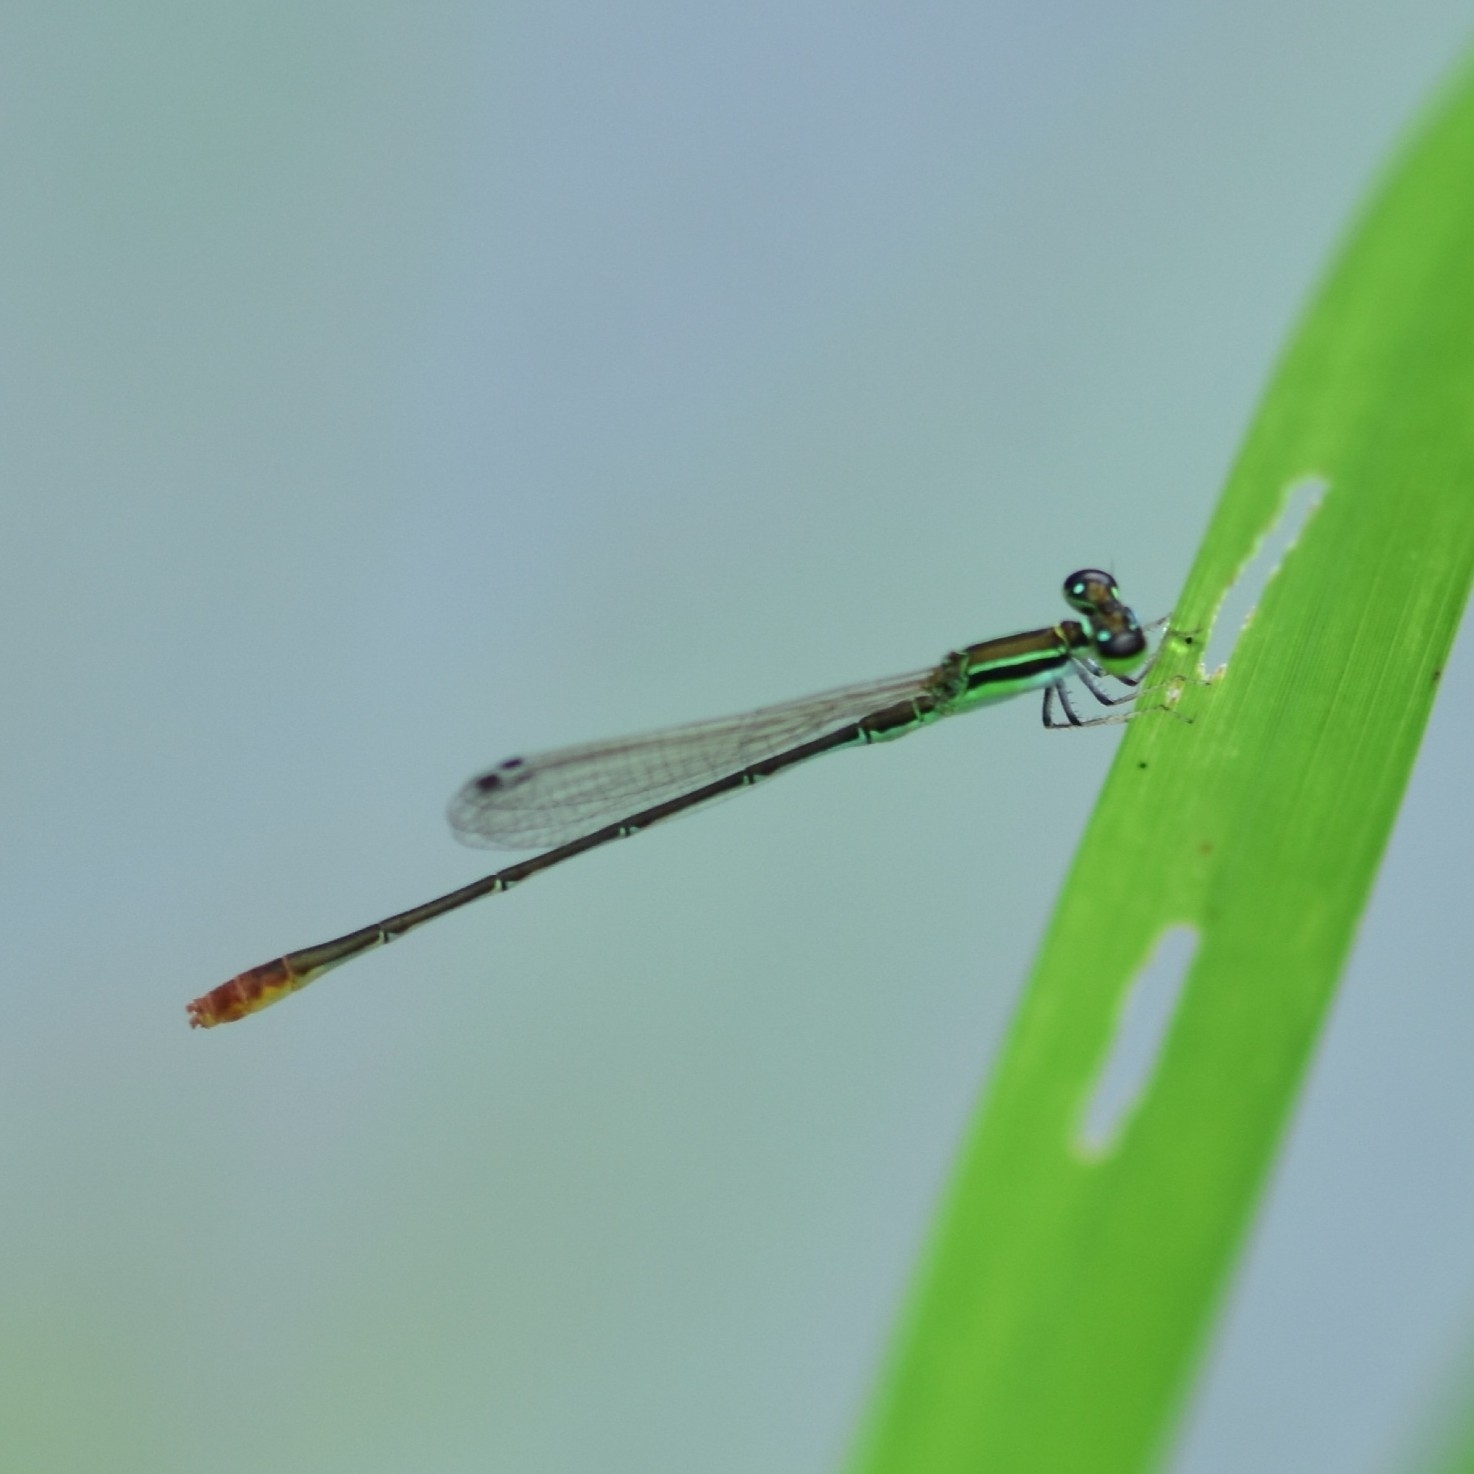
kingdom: Animalia
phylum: Arthropoda
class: Insecta
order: Odonata
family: Coenagrionidae
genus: Agriocnemis
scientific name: Agriocnemis pygmaea
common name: Pygmy wisp
